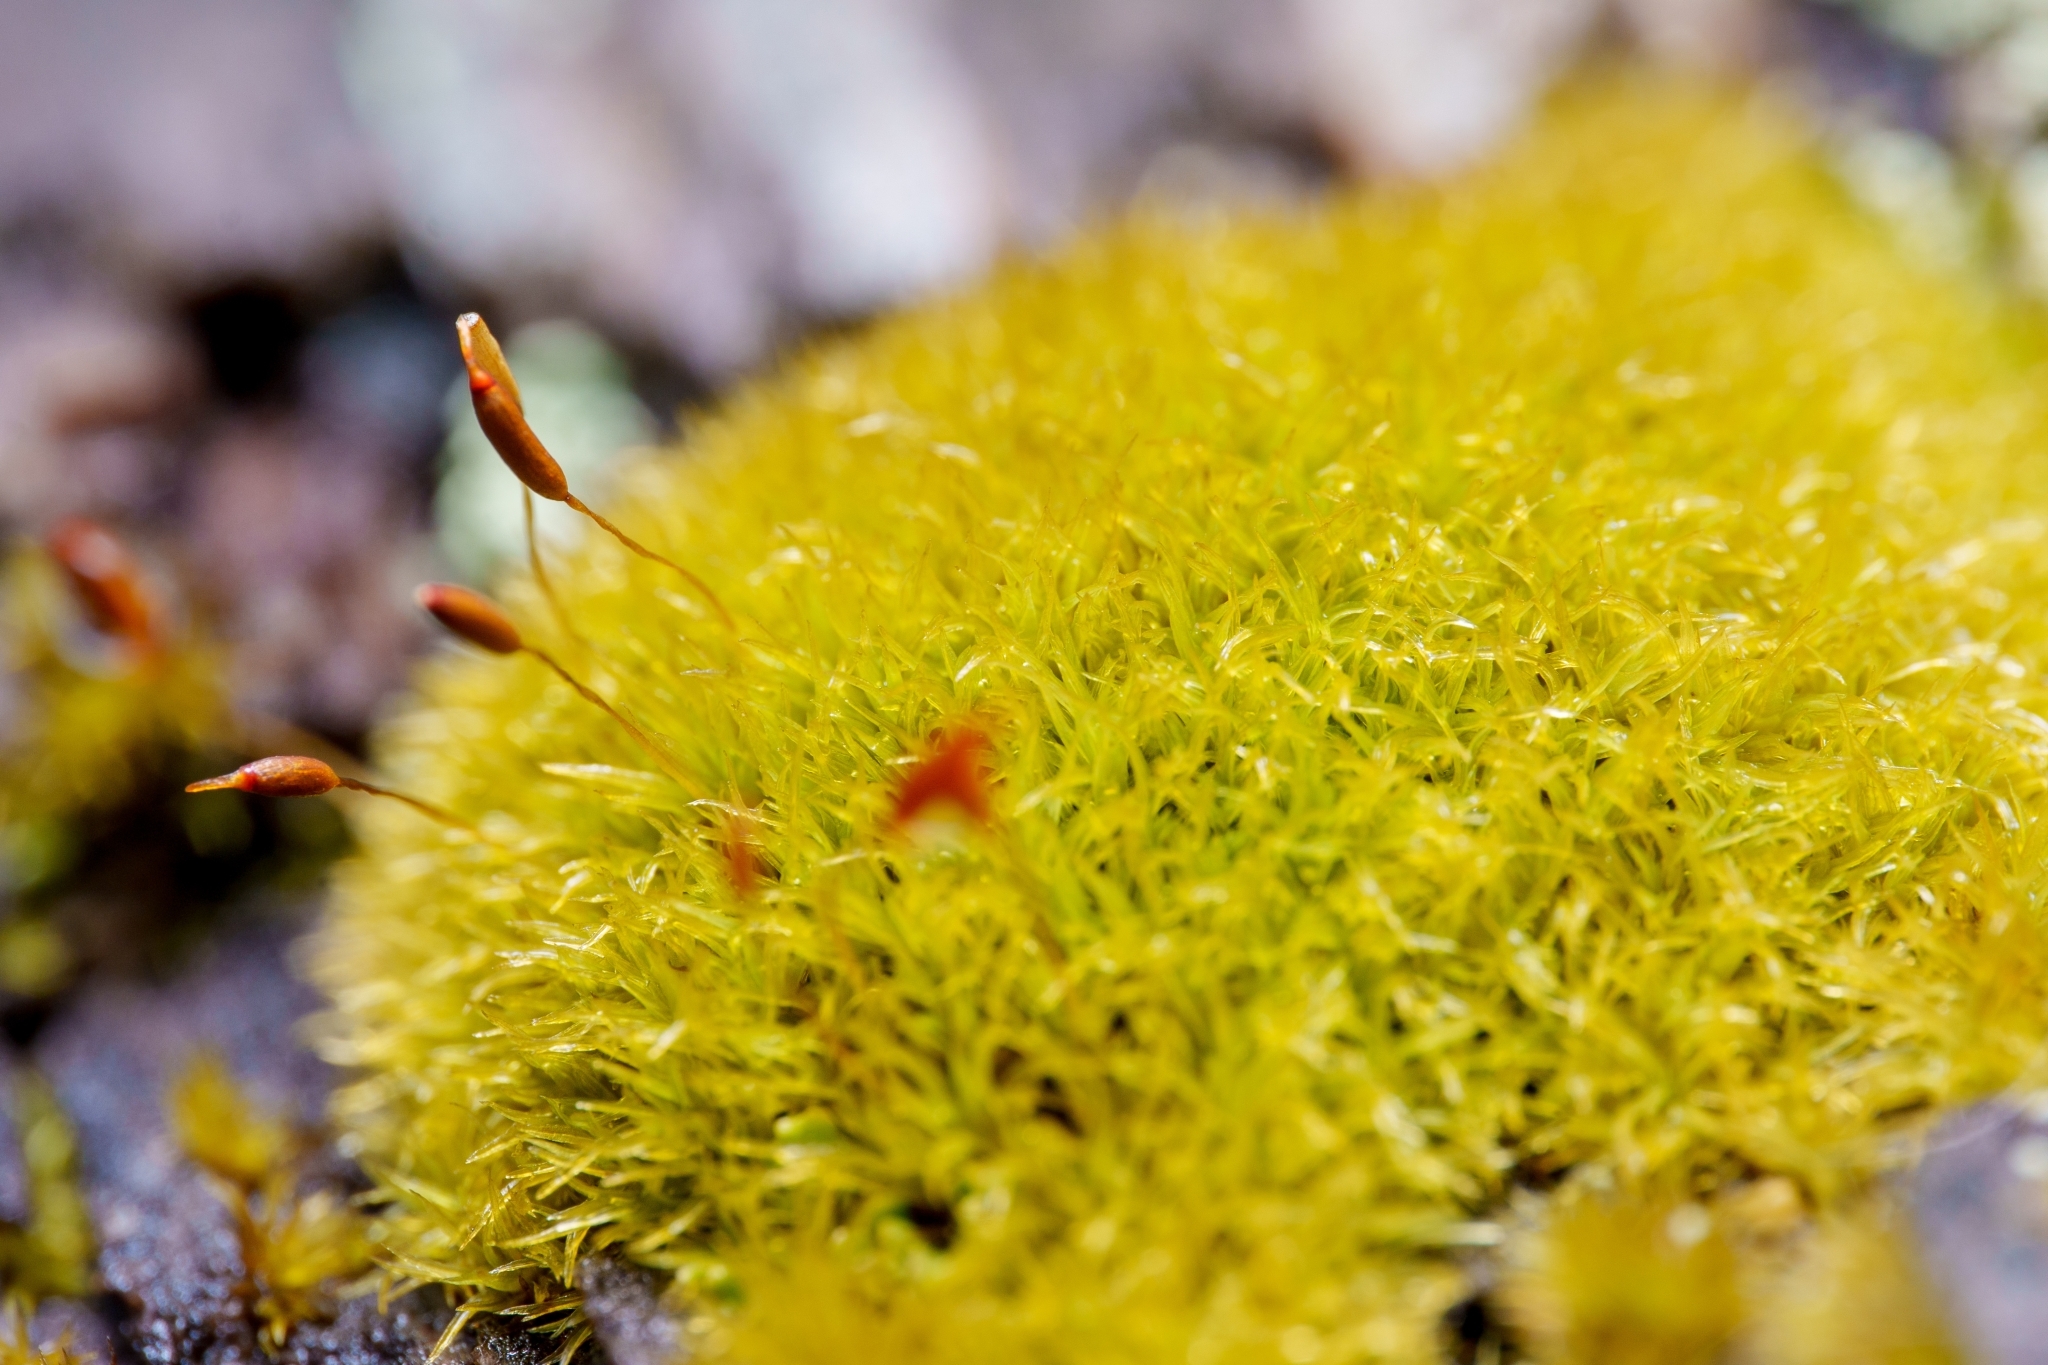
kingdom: Plantae
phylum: Bryophyta
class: Bryopsida
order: Dicranales
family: Rhabdoweisiaceae
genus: Dicranoweisia
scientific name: Dicranoweisia cirrata
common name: Common pincushion
